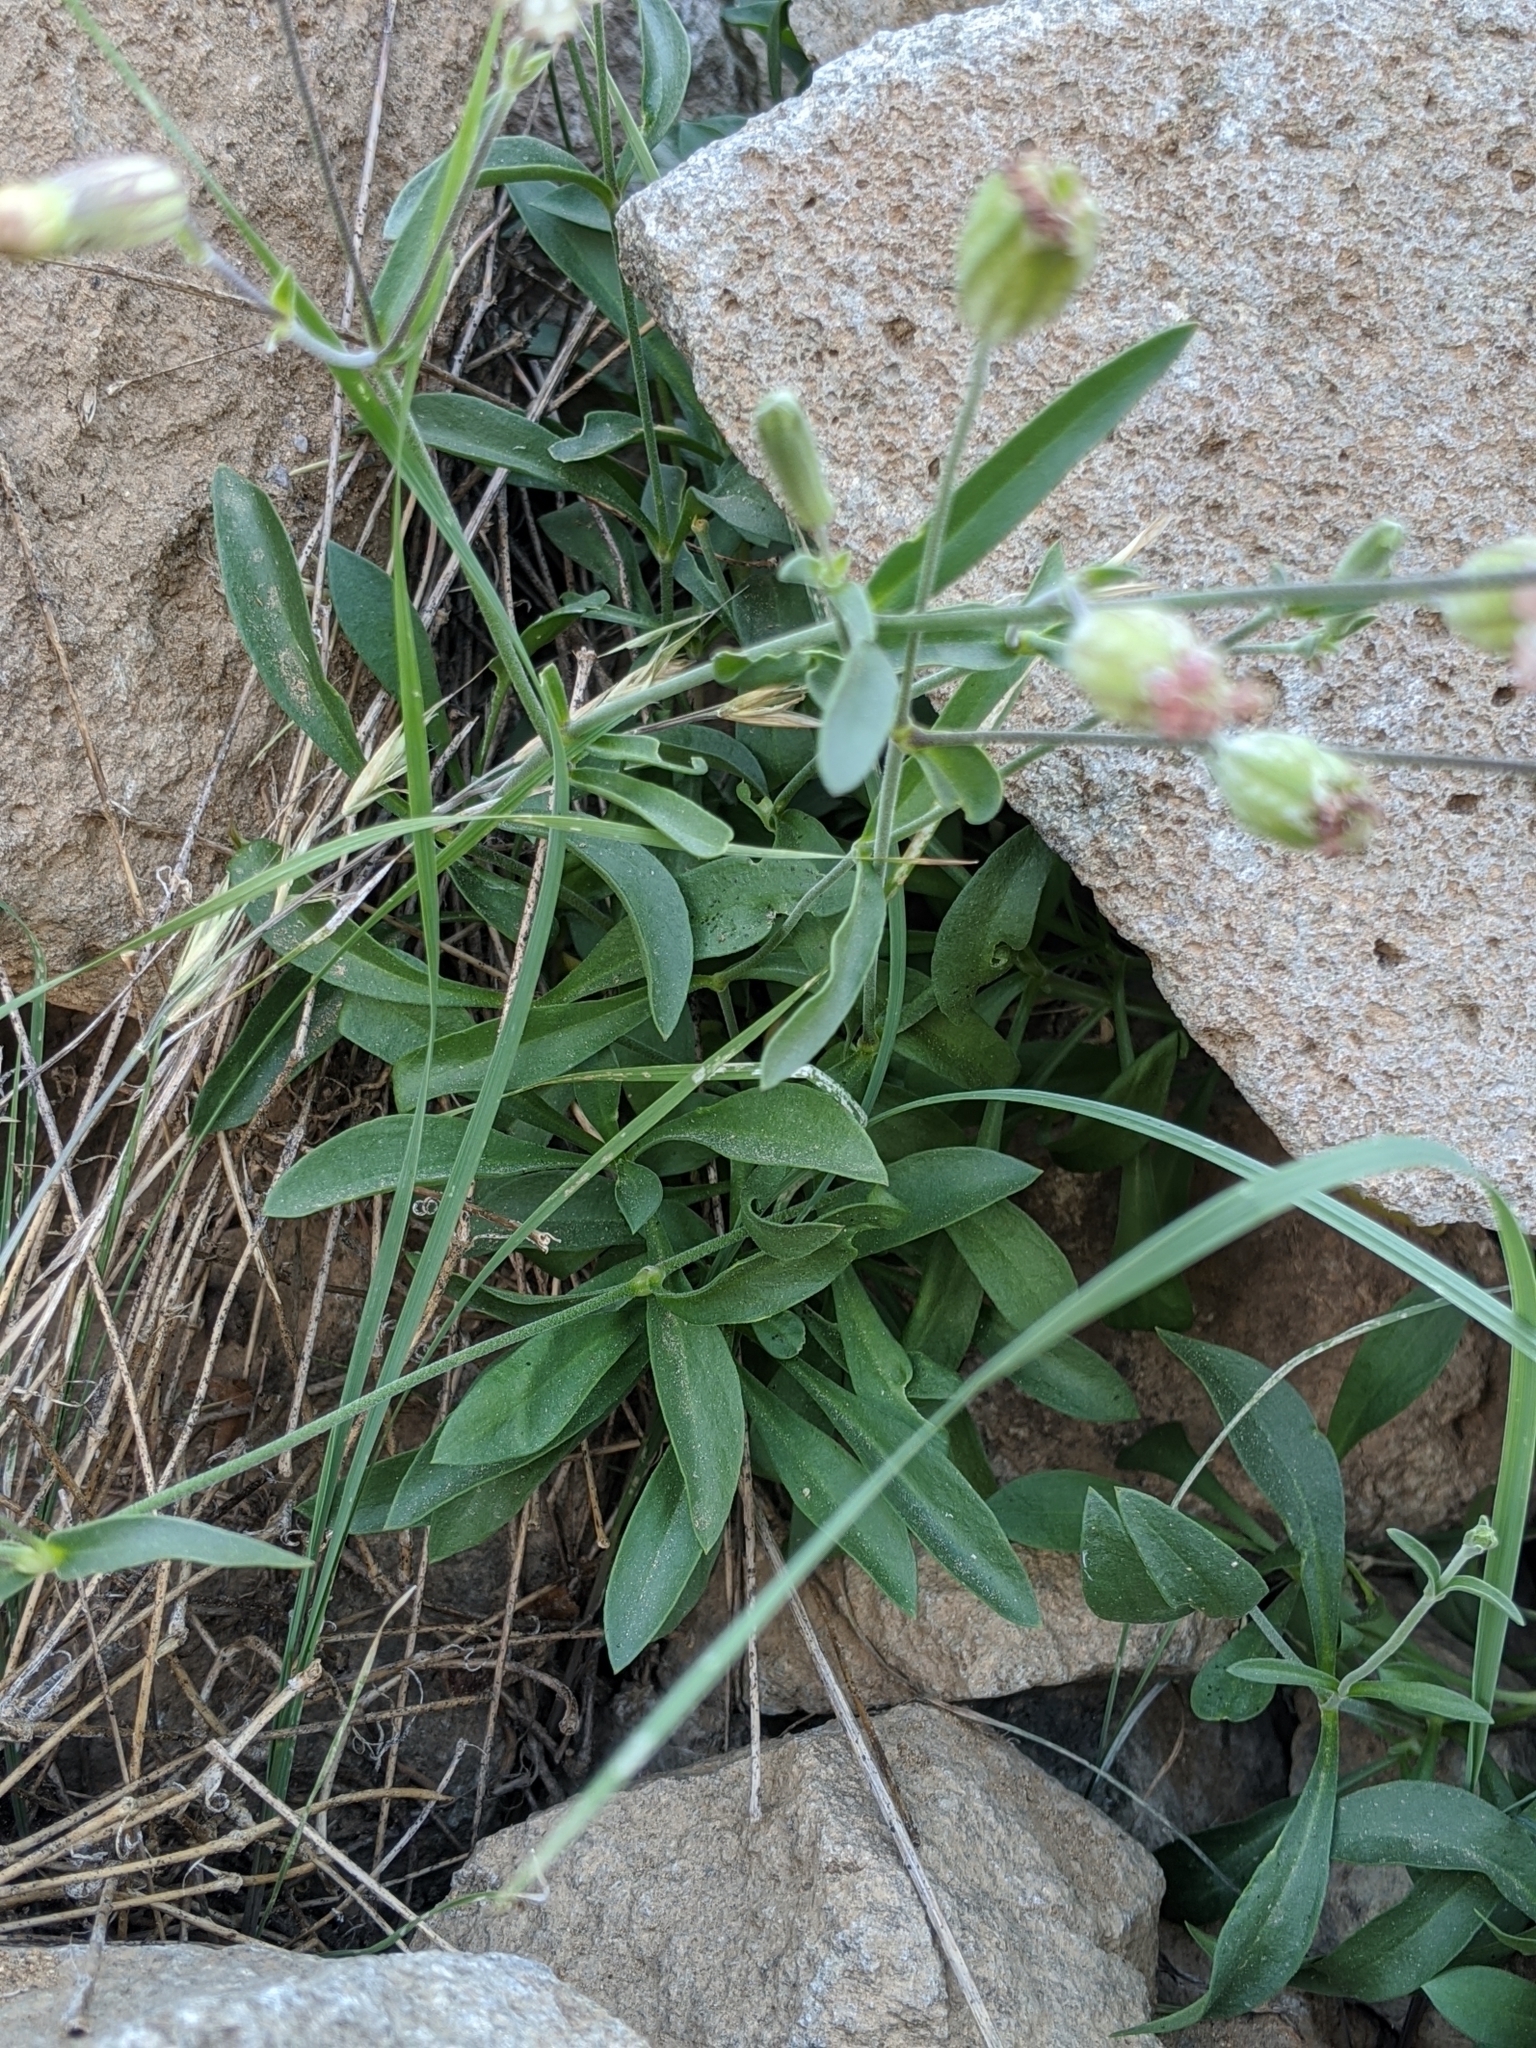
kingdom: Plantae
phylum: Tracheophyta
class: Magnoliopsida
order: Caryophyllales
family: Caryophyllaceae
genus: Silene
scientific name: Silene douglasii
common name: Douglas's catchfly
